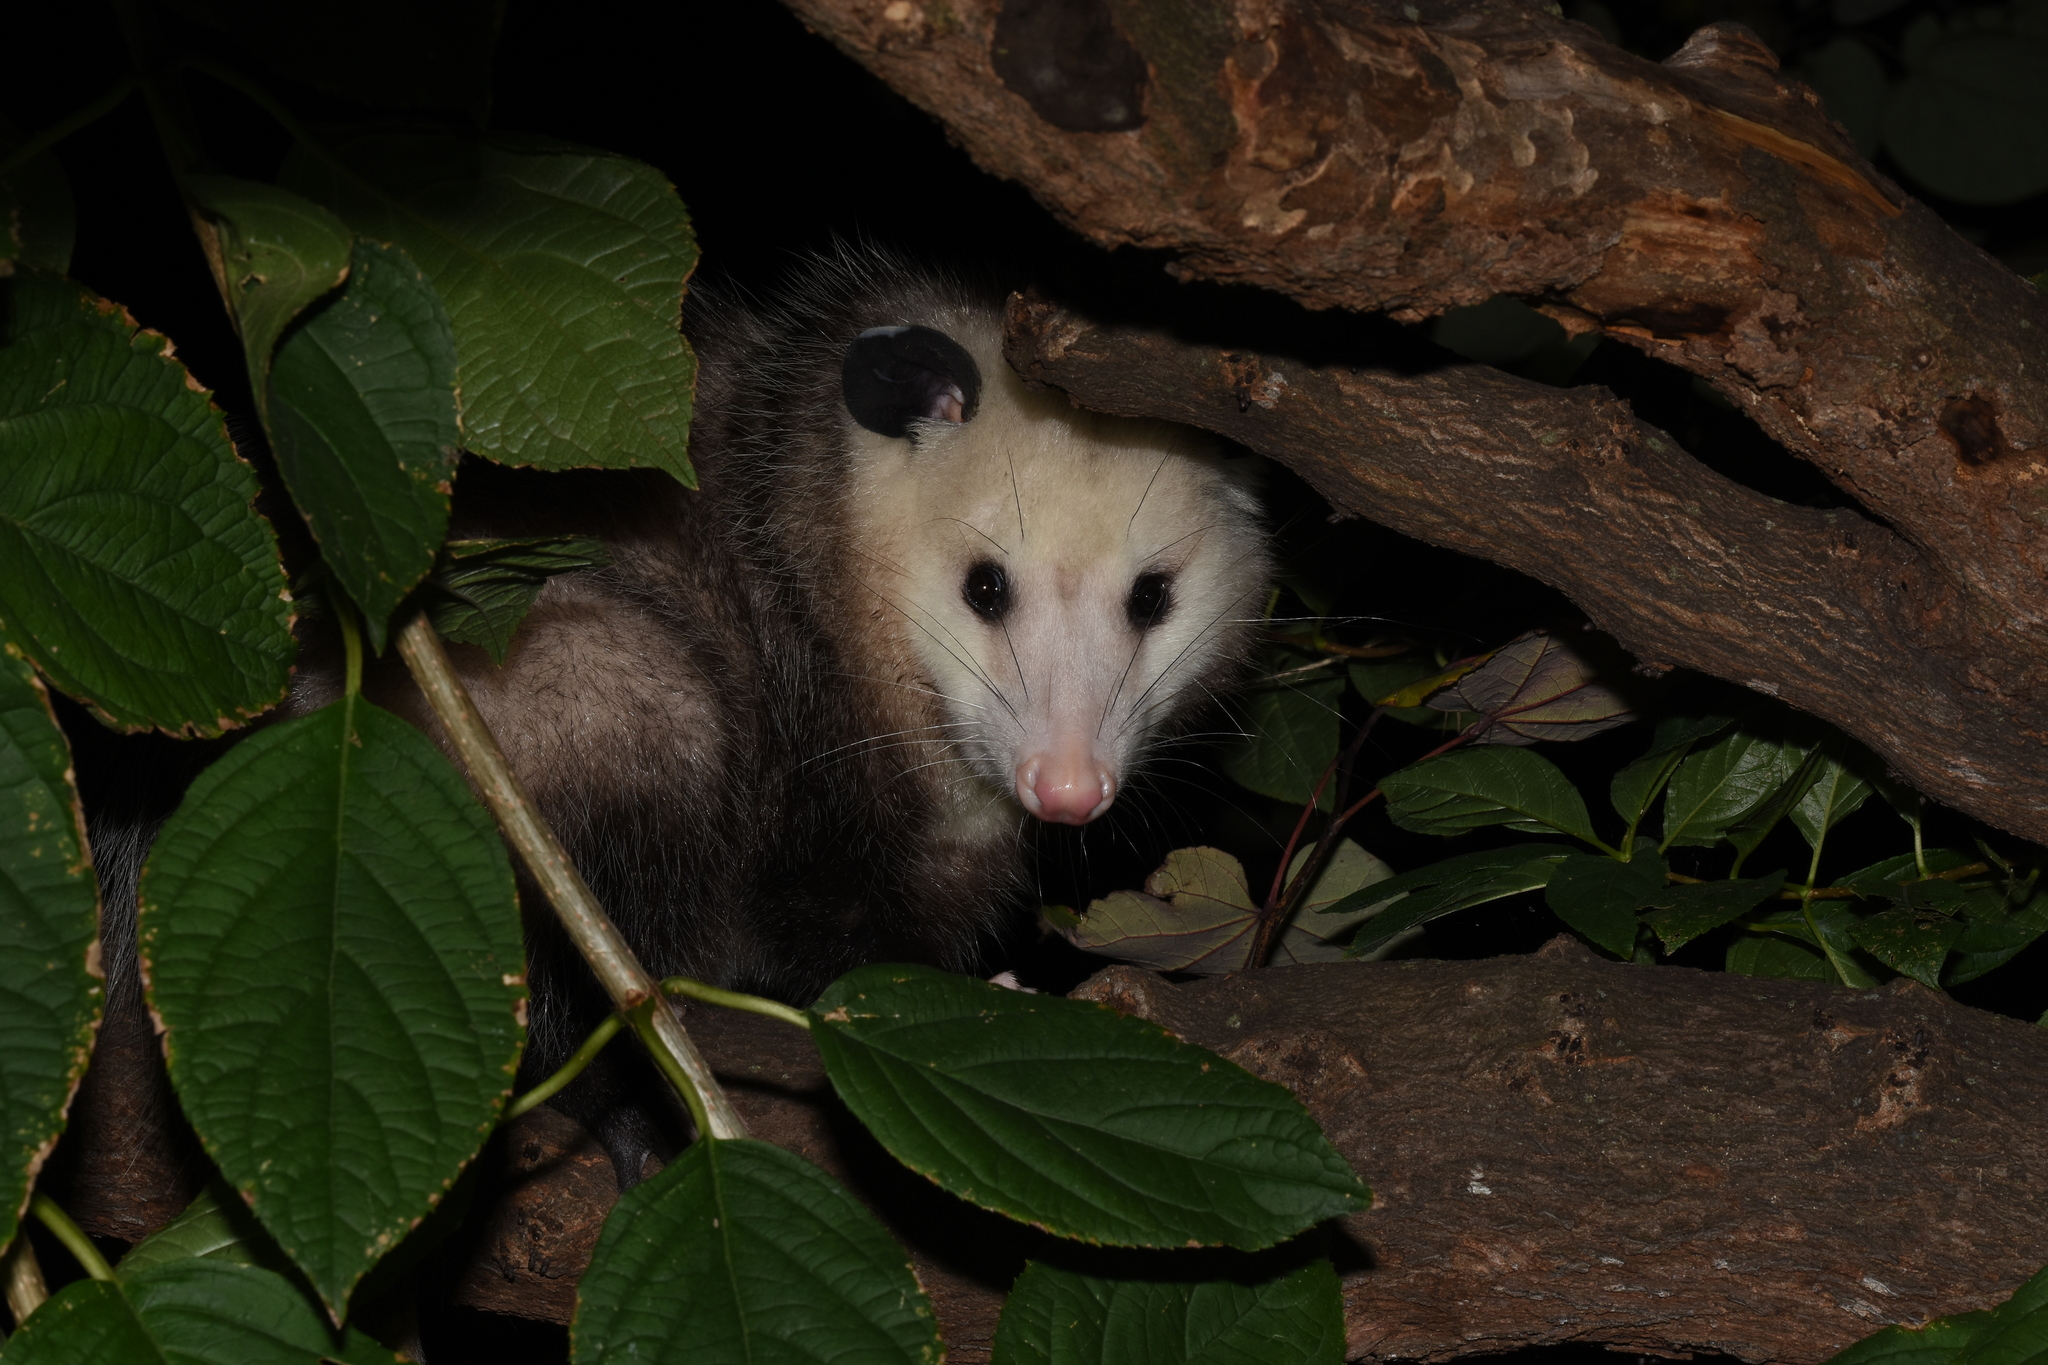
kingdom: Animalia
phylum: Chordata
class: Mammalia
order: Didelphimorphia
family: Didelphidae
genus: Didelphis
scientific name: Didelphis virginiana
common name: Virginia opossum
